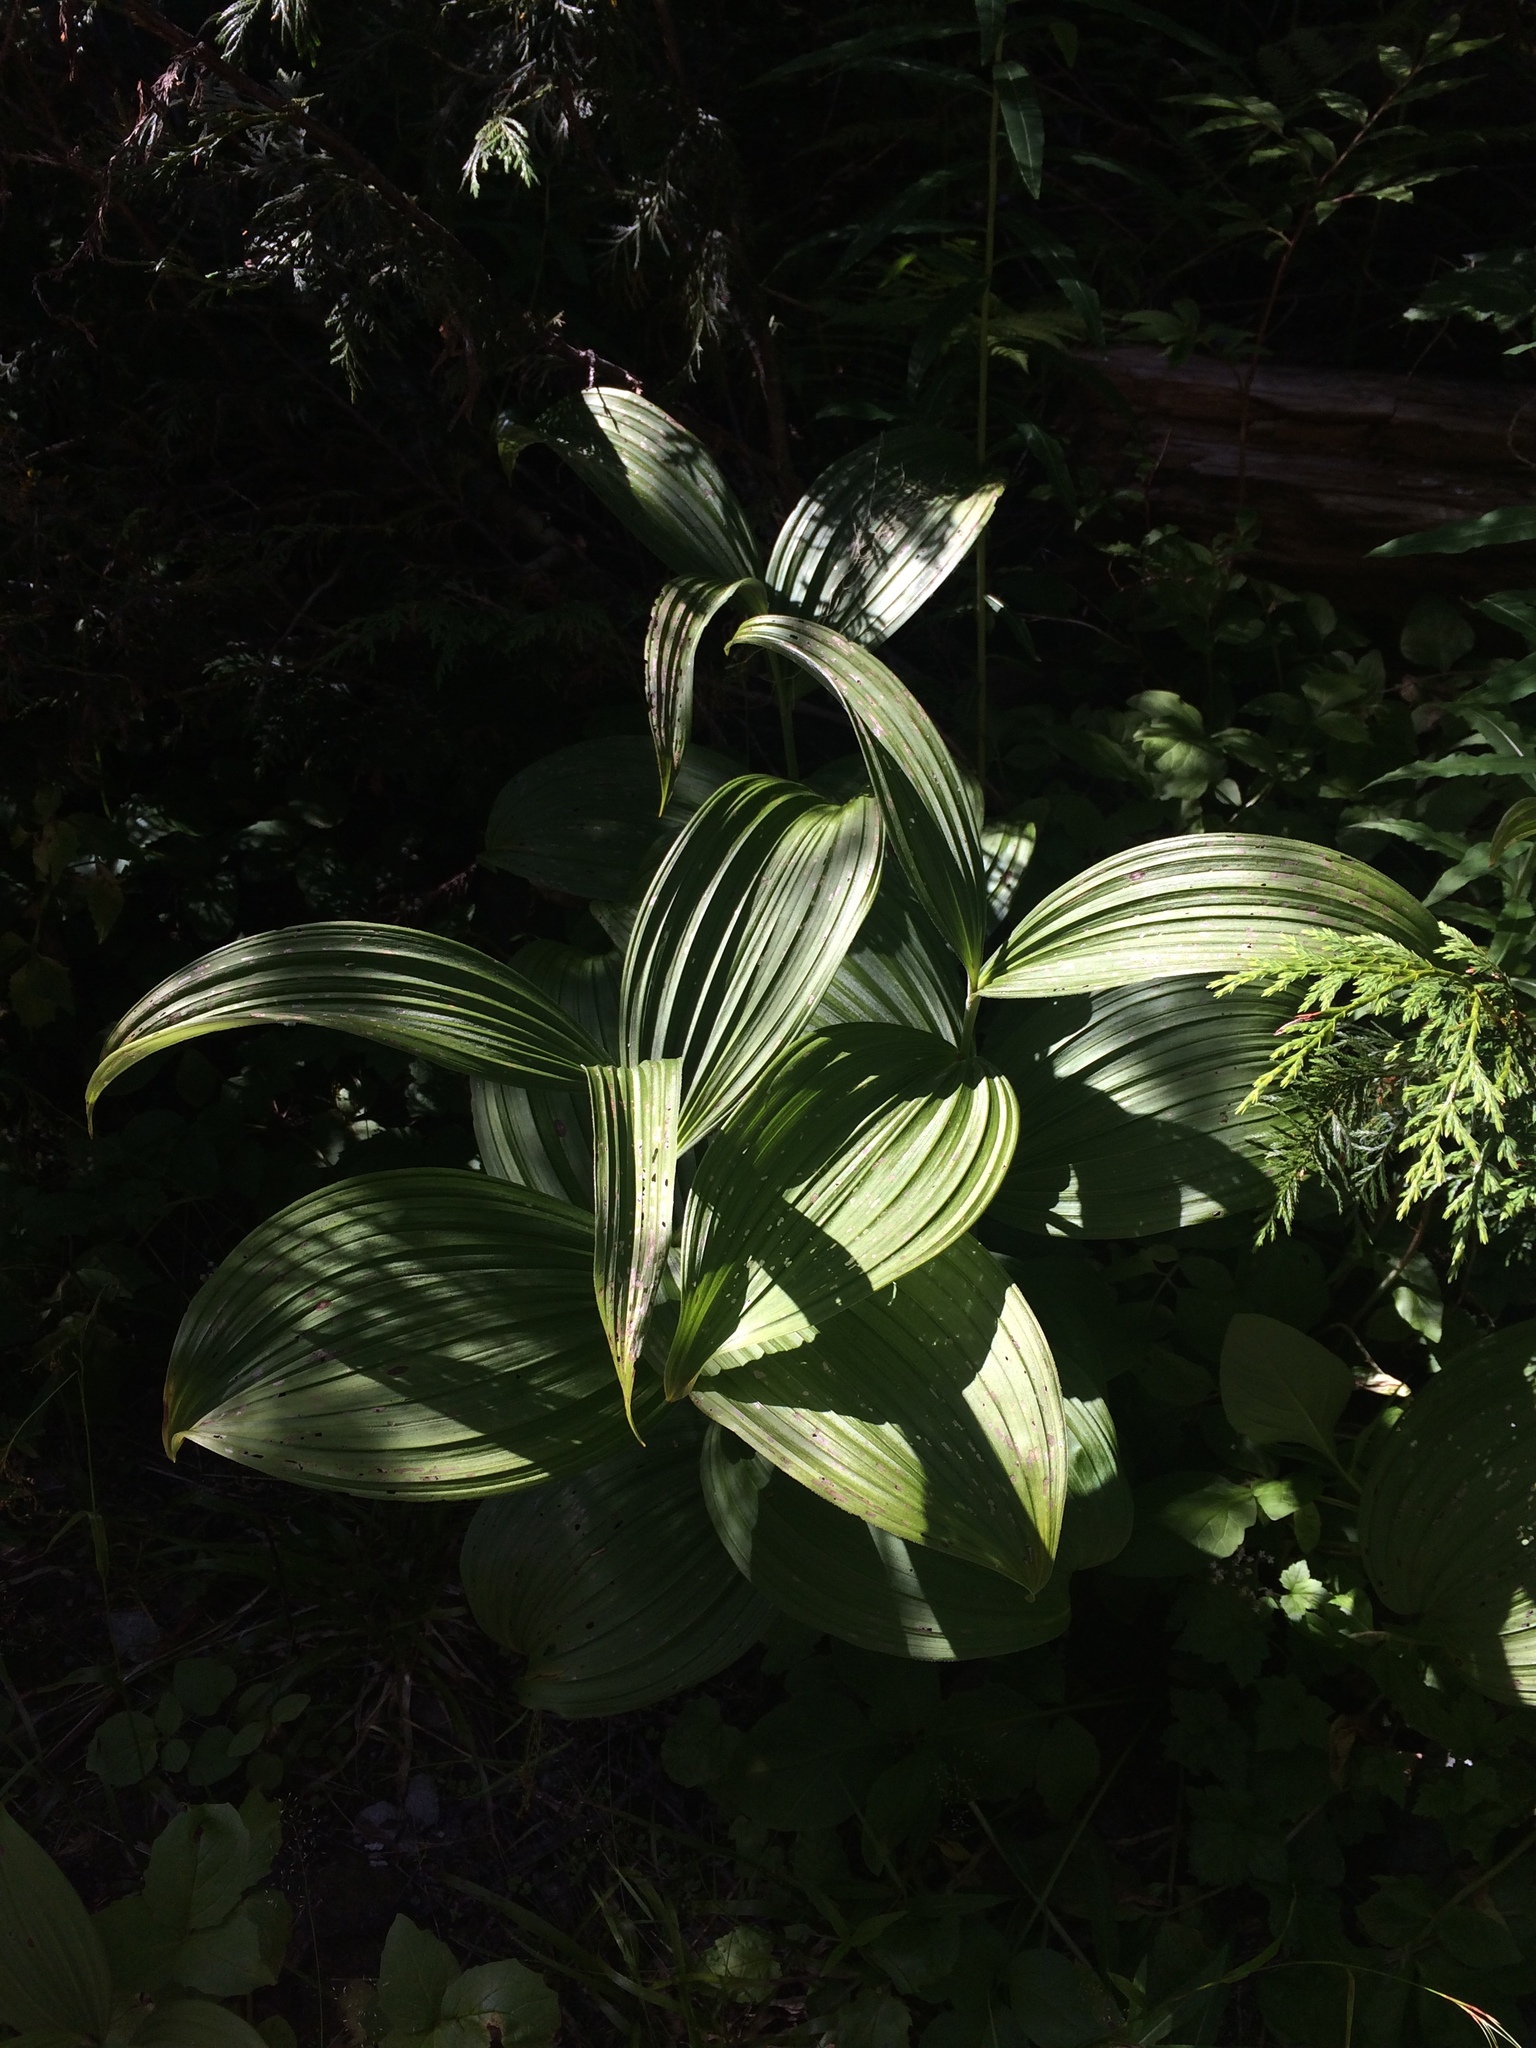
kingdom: Plantae
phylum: Tracheophyta
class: Liliopsida
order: Liliales
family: Melanthiaceae
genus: Veratrum
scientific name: Veratrum viride
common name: American false hellebore
